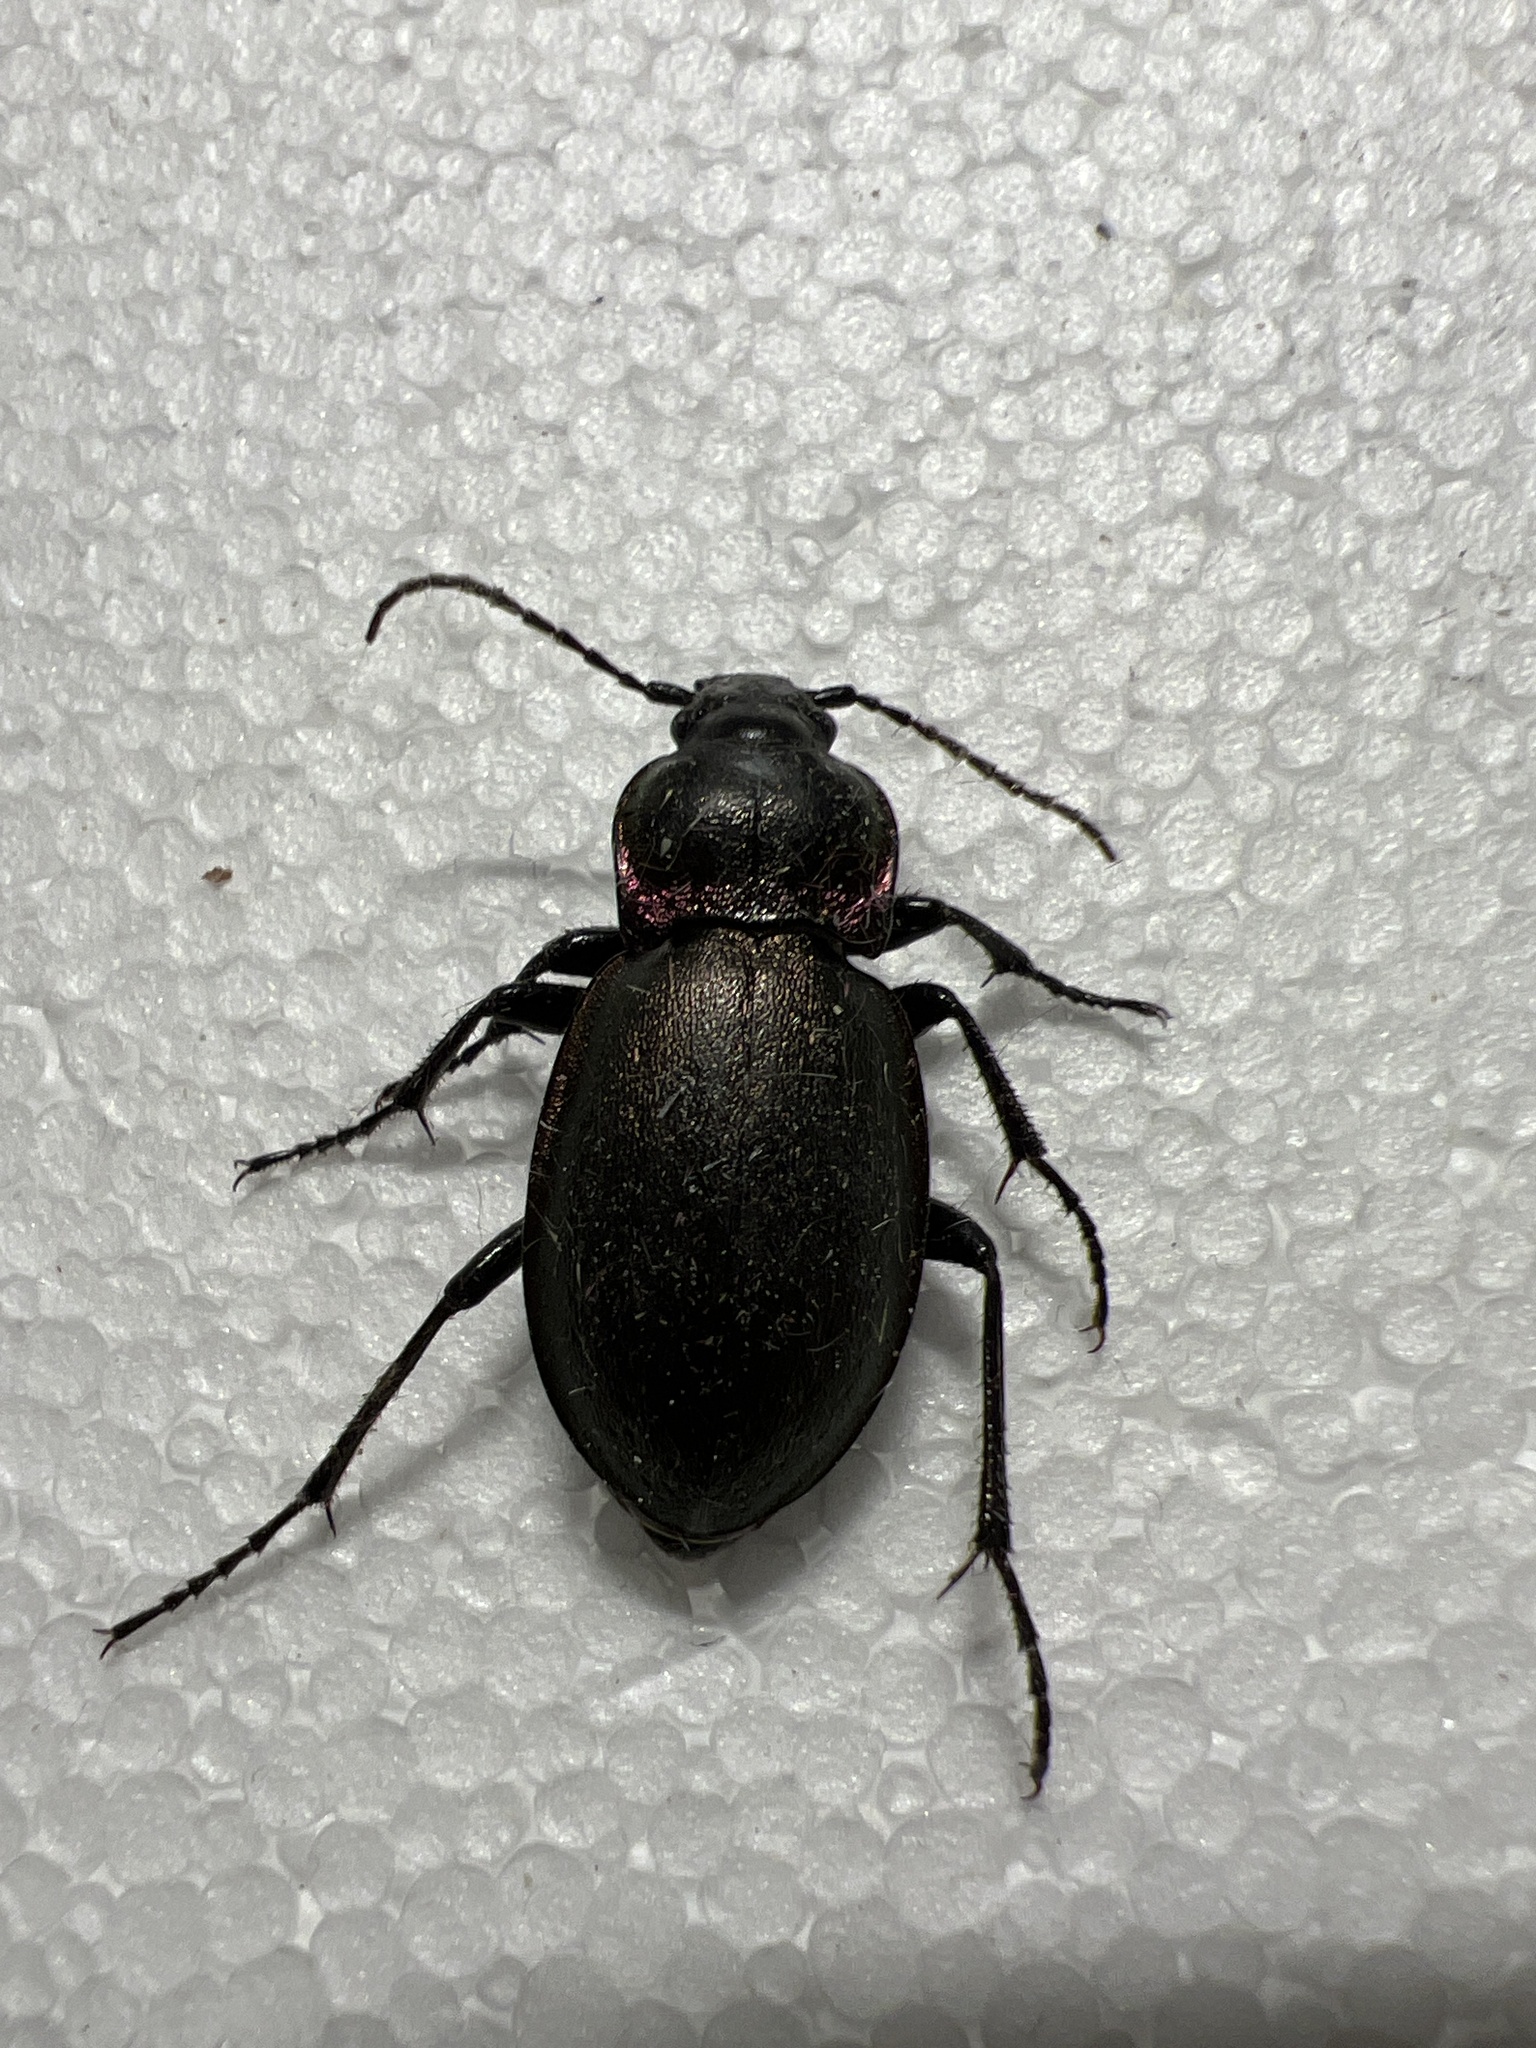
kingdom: Animalia
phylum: Arthropoda
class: Insecta
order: Coleoptera
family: Carabidae
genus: Carabus
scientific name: Carabus nemoralis
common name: European ground beetle
